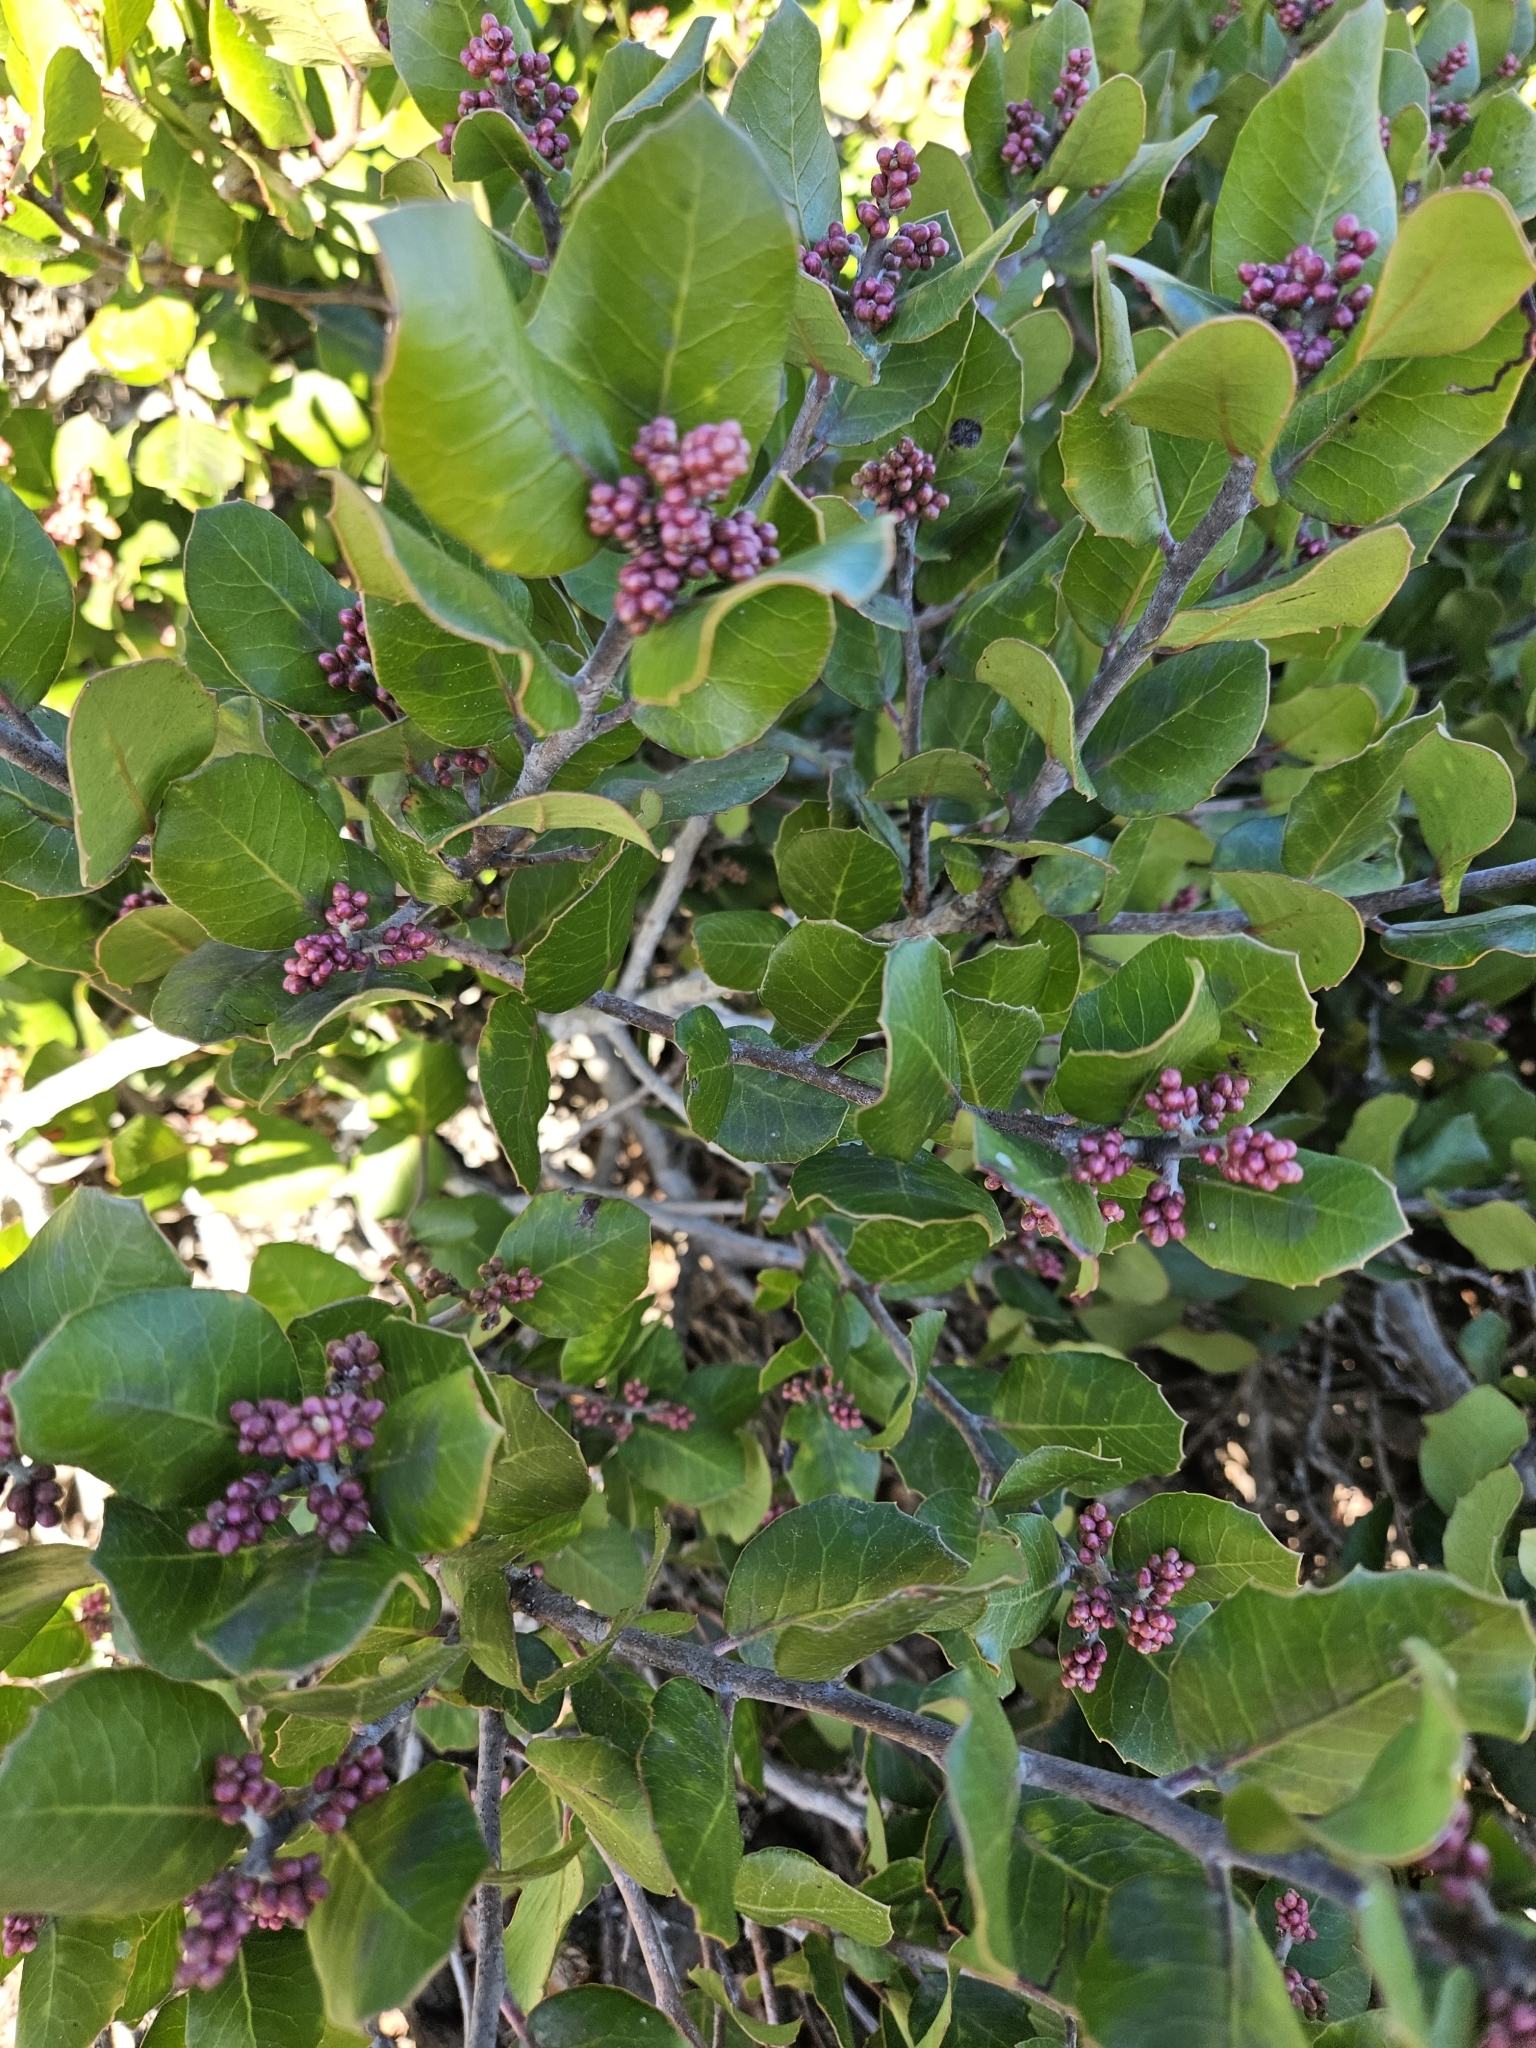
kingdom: Plantae
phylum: Tracheophyta
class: Magnoliopsida
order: Sapindales
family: Anacardiaceae
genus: Rhus
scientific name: Rhus integrifolia
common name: Lemonade sumac
